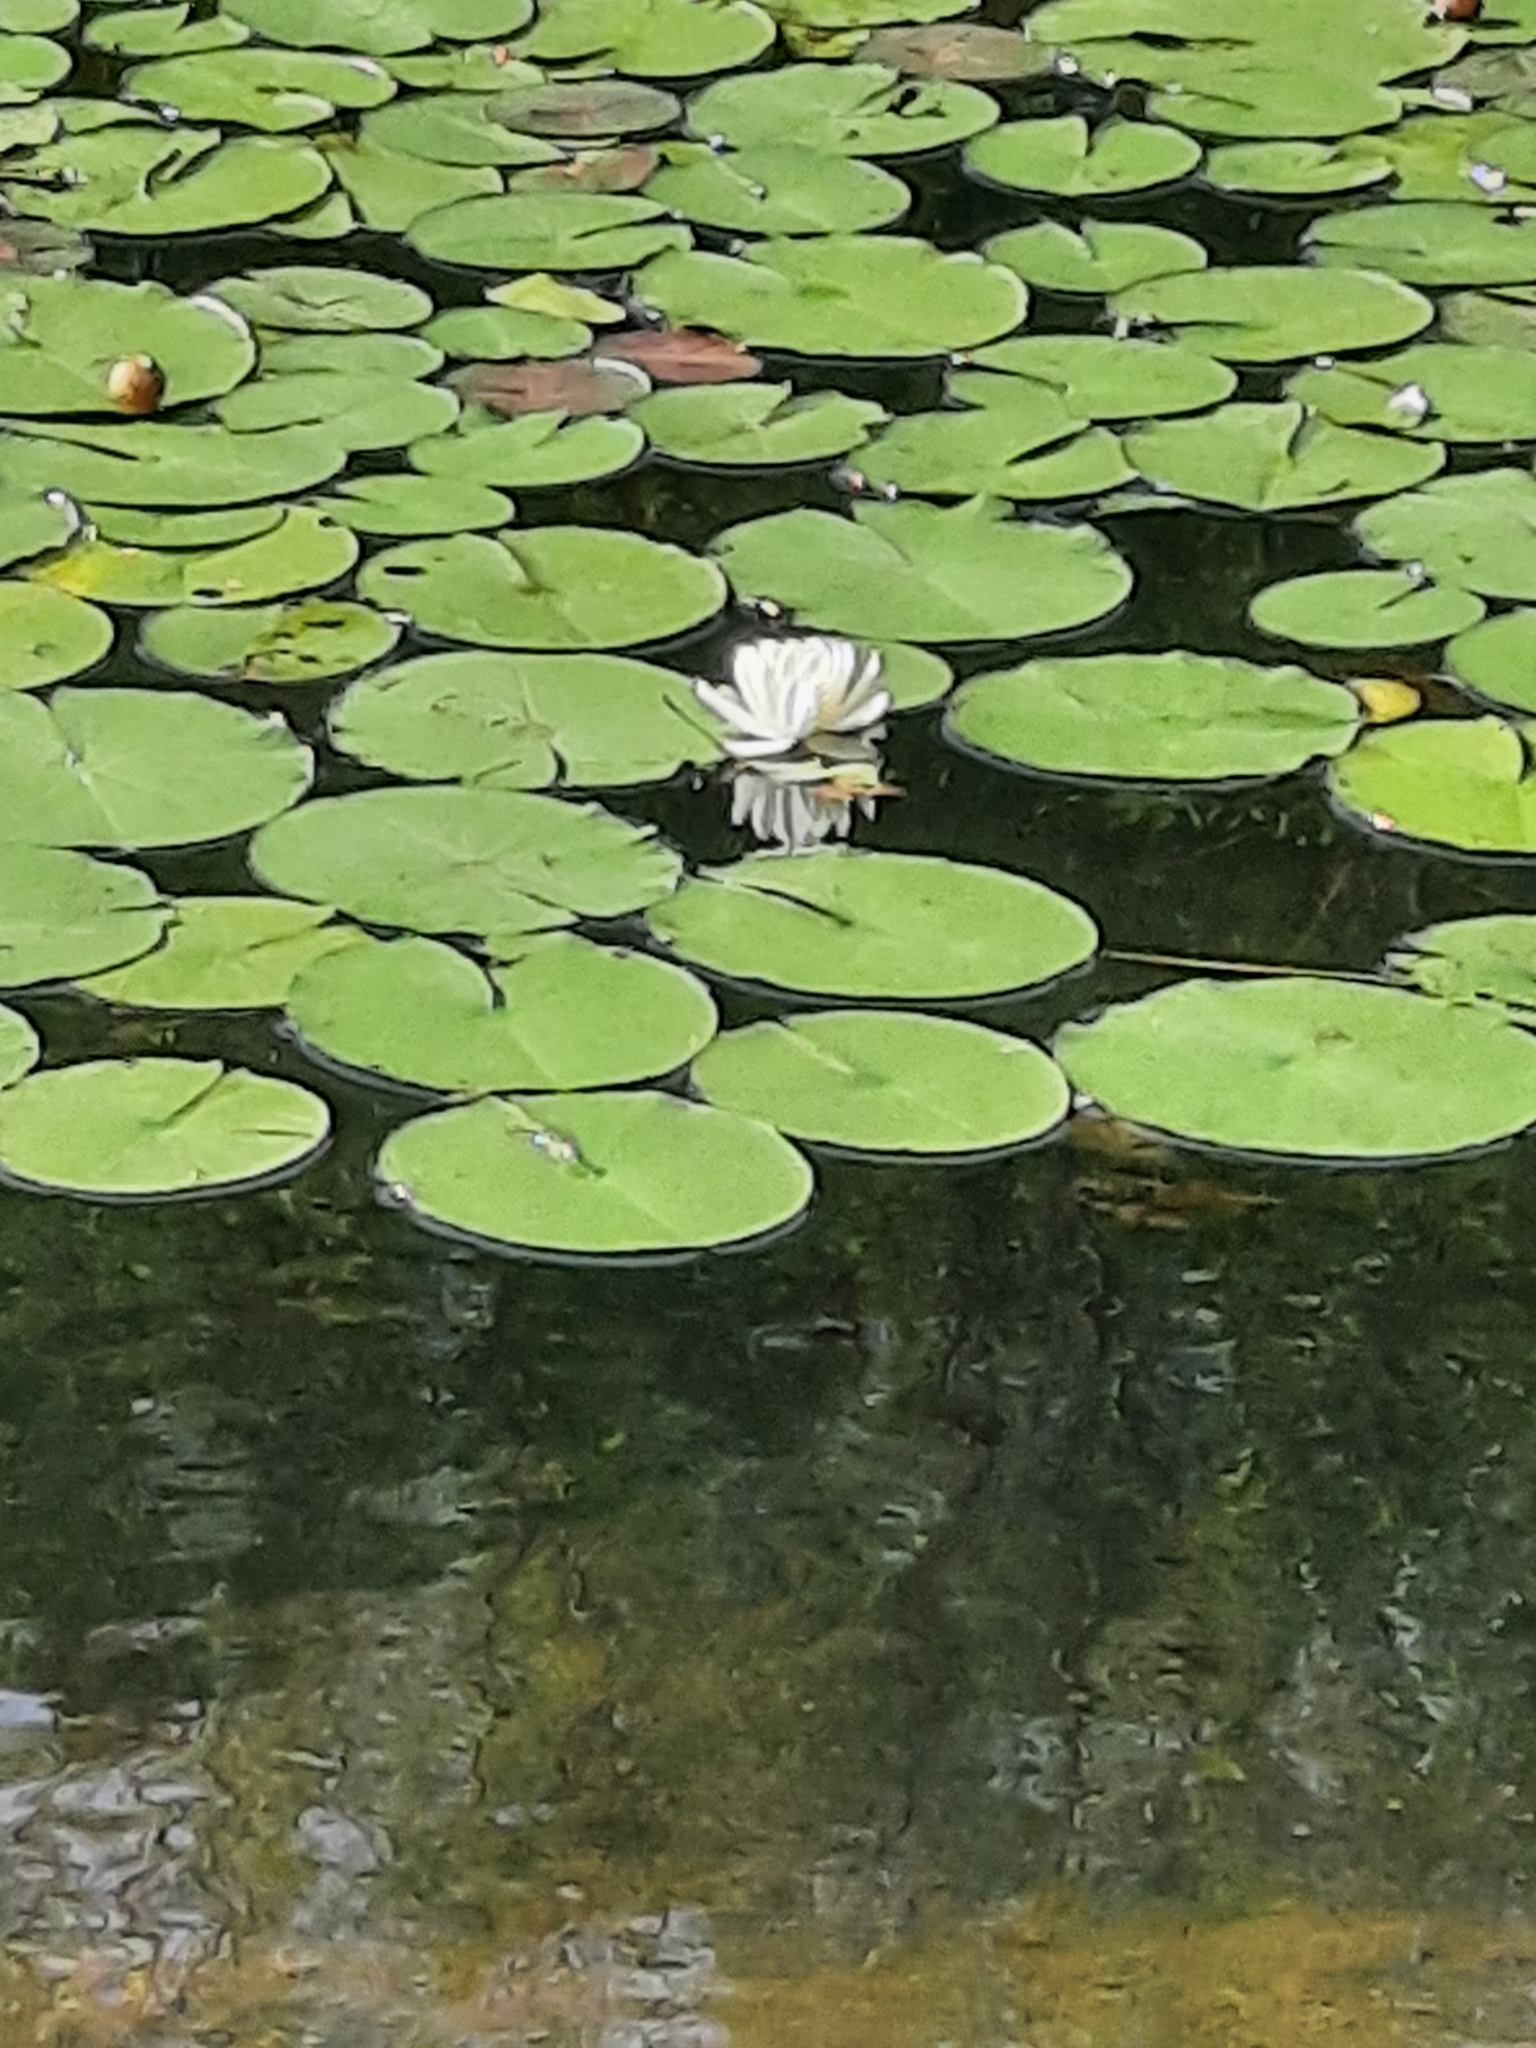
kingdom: Plantae
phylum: Tracheophyta
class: Magnoliopsida
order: Nymphaeales
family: Nymphaeaceae
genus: Nymphaea
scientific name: Nymphaea odorata
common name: Fragrant water-lily
